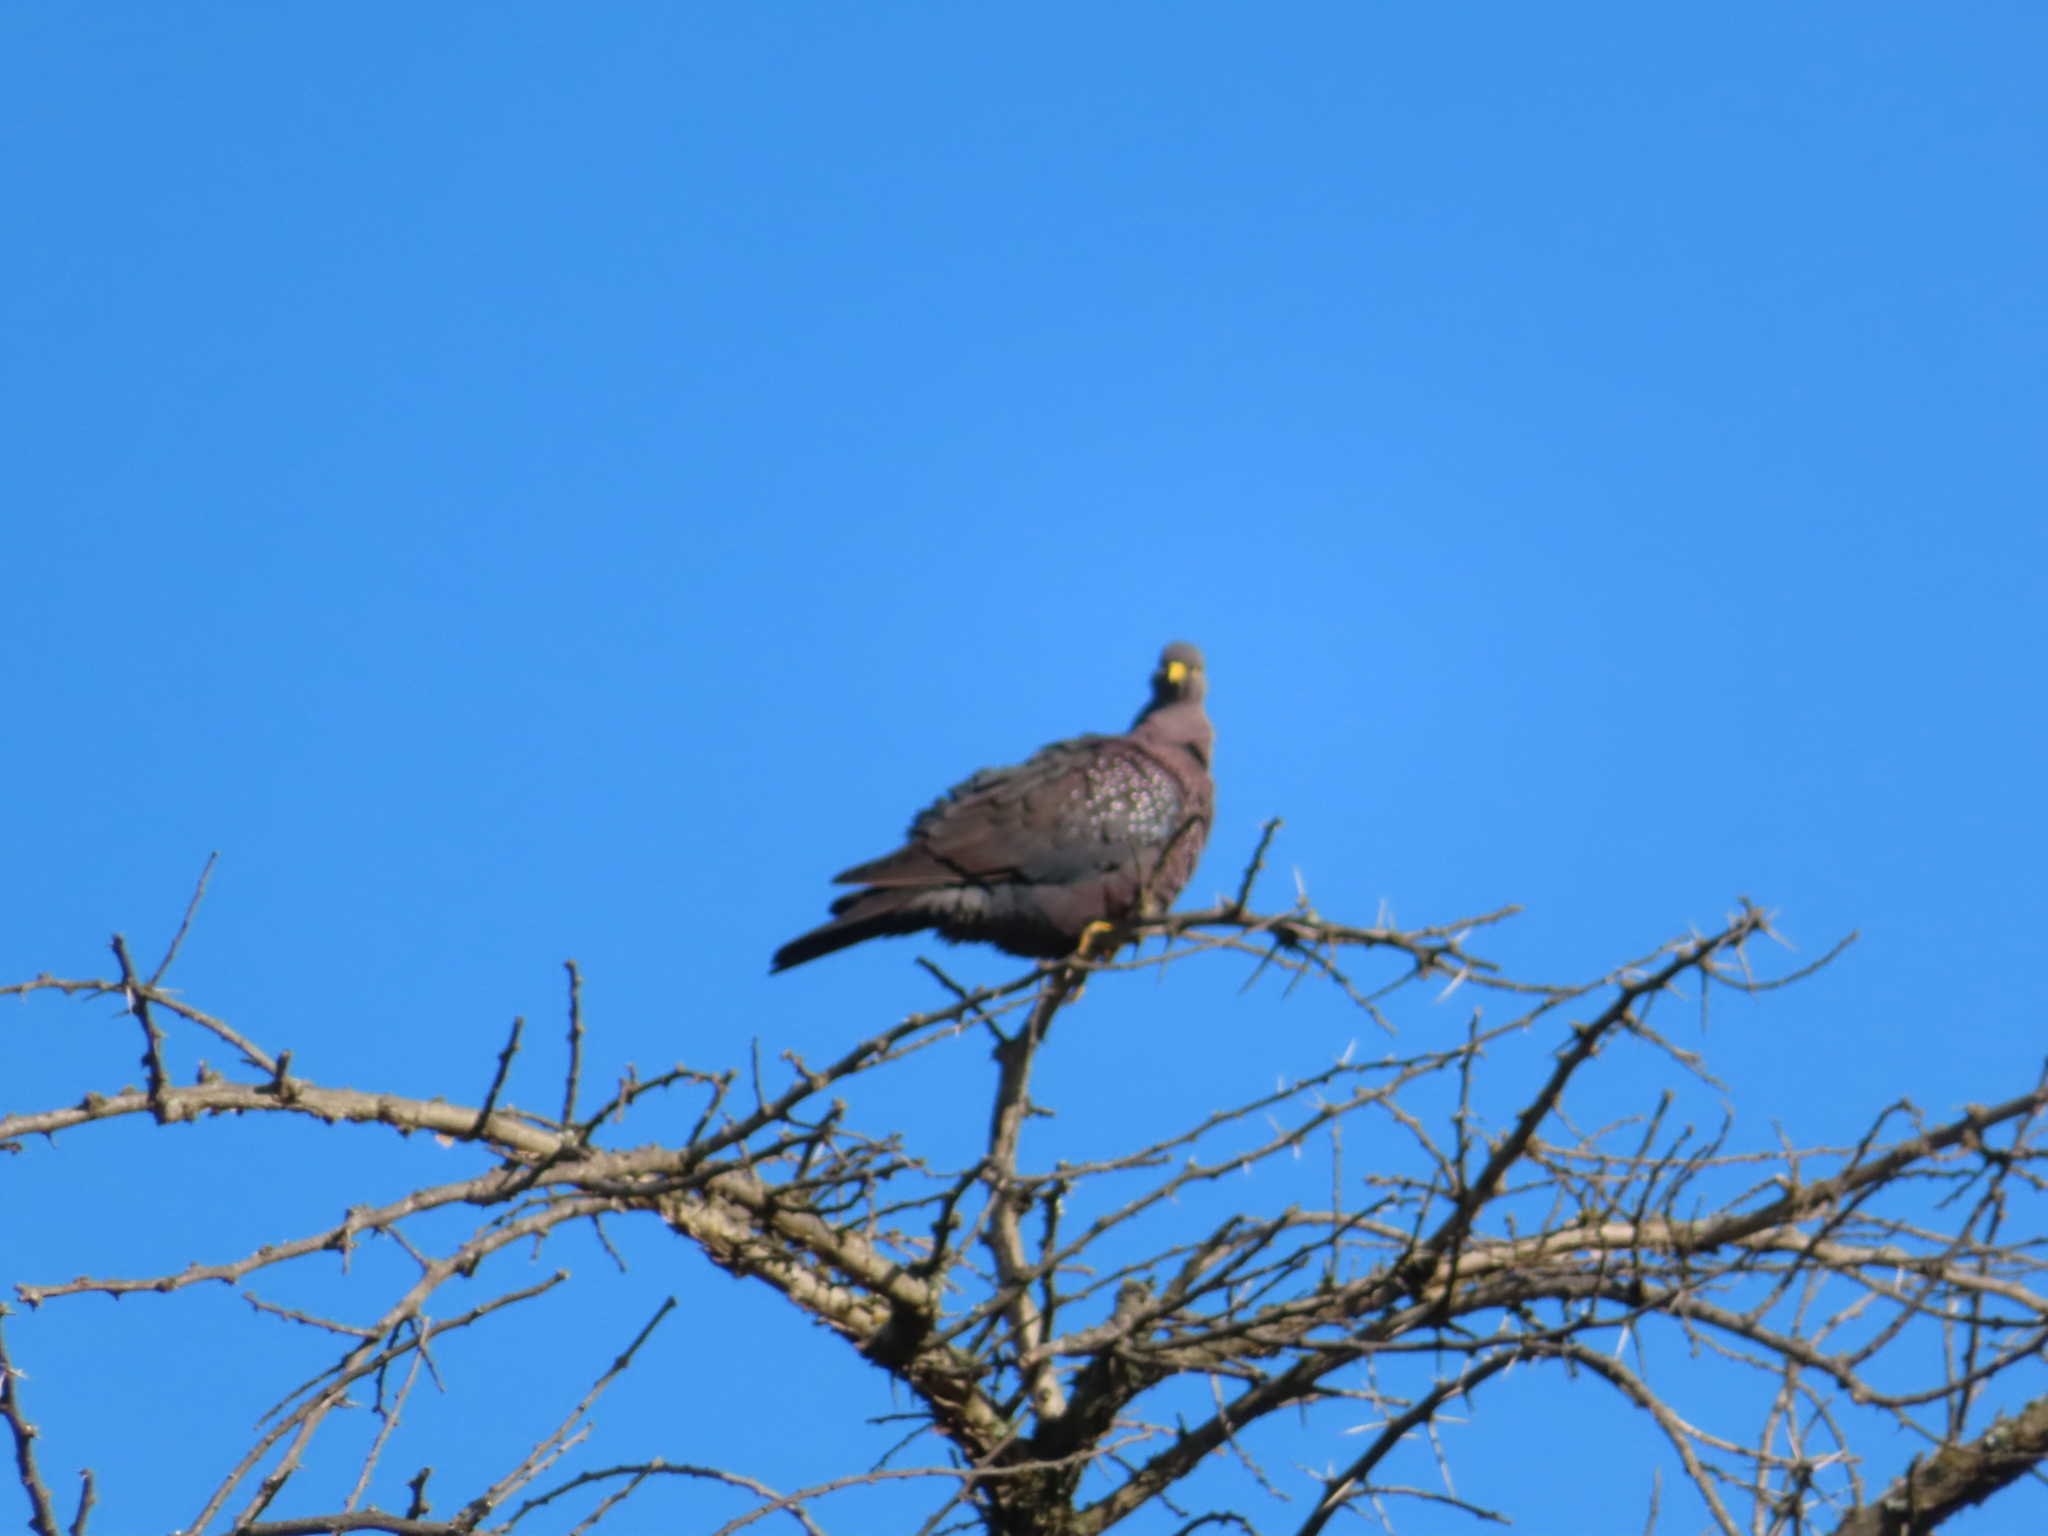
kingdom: Animalia
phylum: Chordata
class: Aves
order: Columbiformes
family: Columbidae
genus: Columba
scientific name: Columba arquatrix
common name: African olive pigeon
